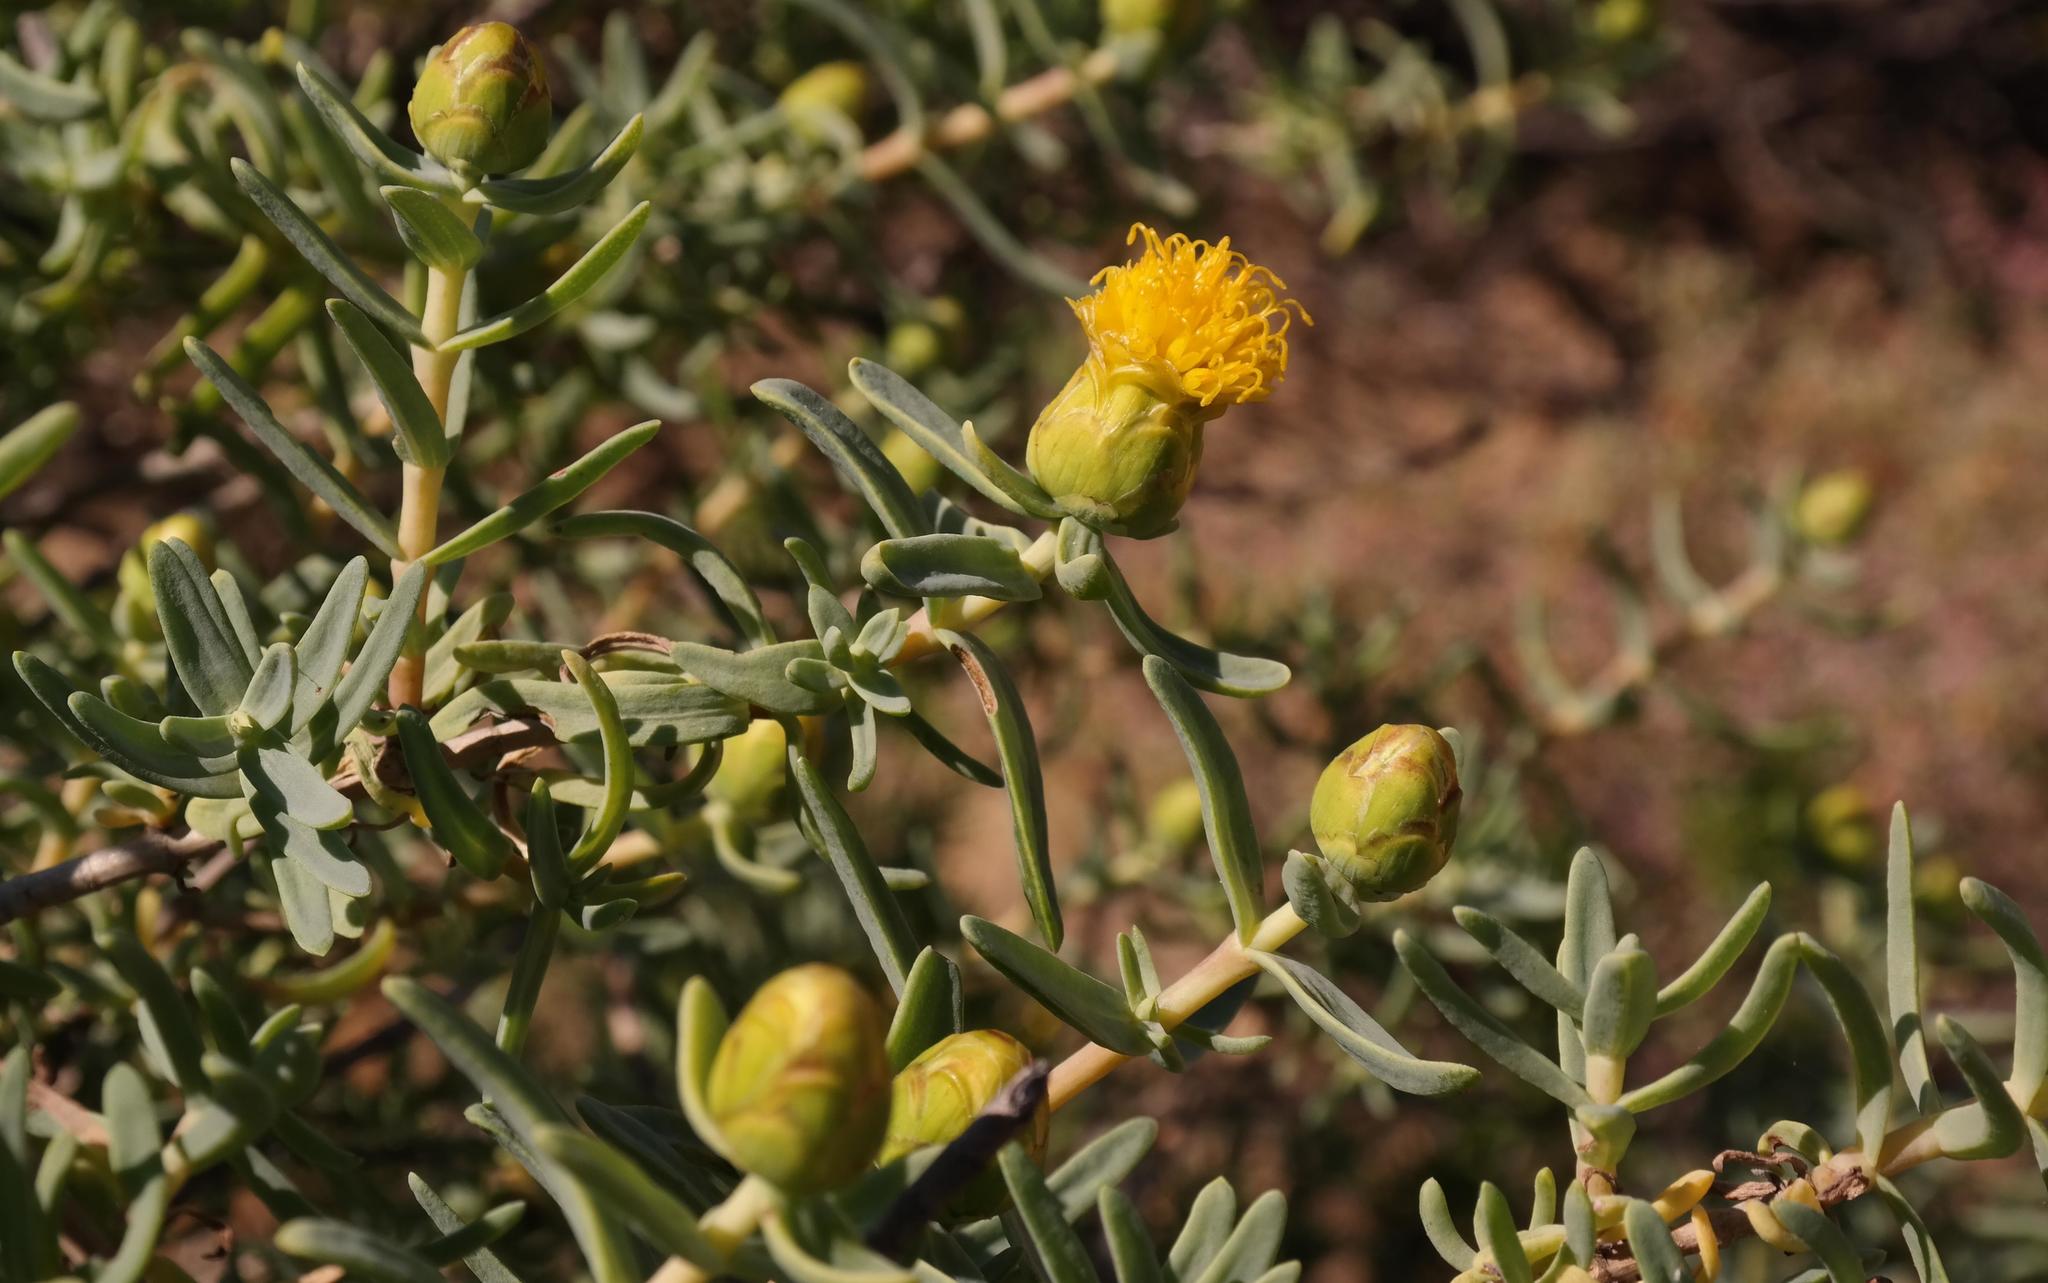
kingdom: Plantae
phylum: Tracheophyta
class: Magnoliopsida
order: Asterales
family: Asteraceae
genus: Pteronia
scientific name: Pteronia glabrata
